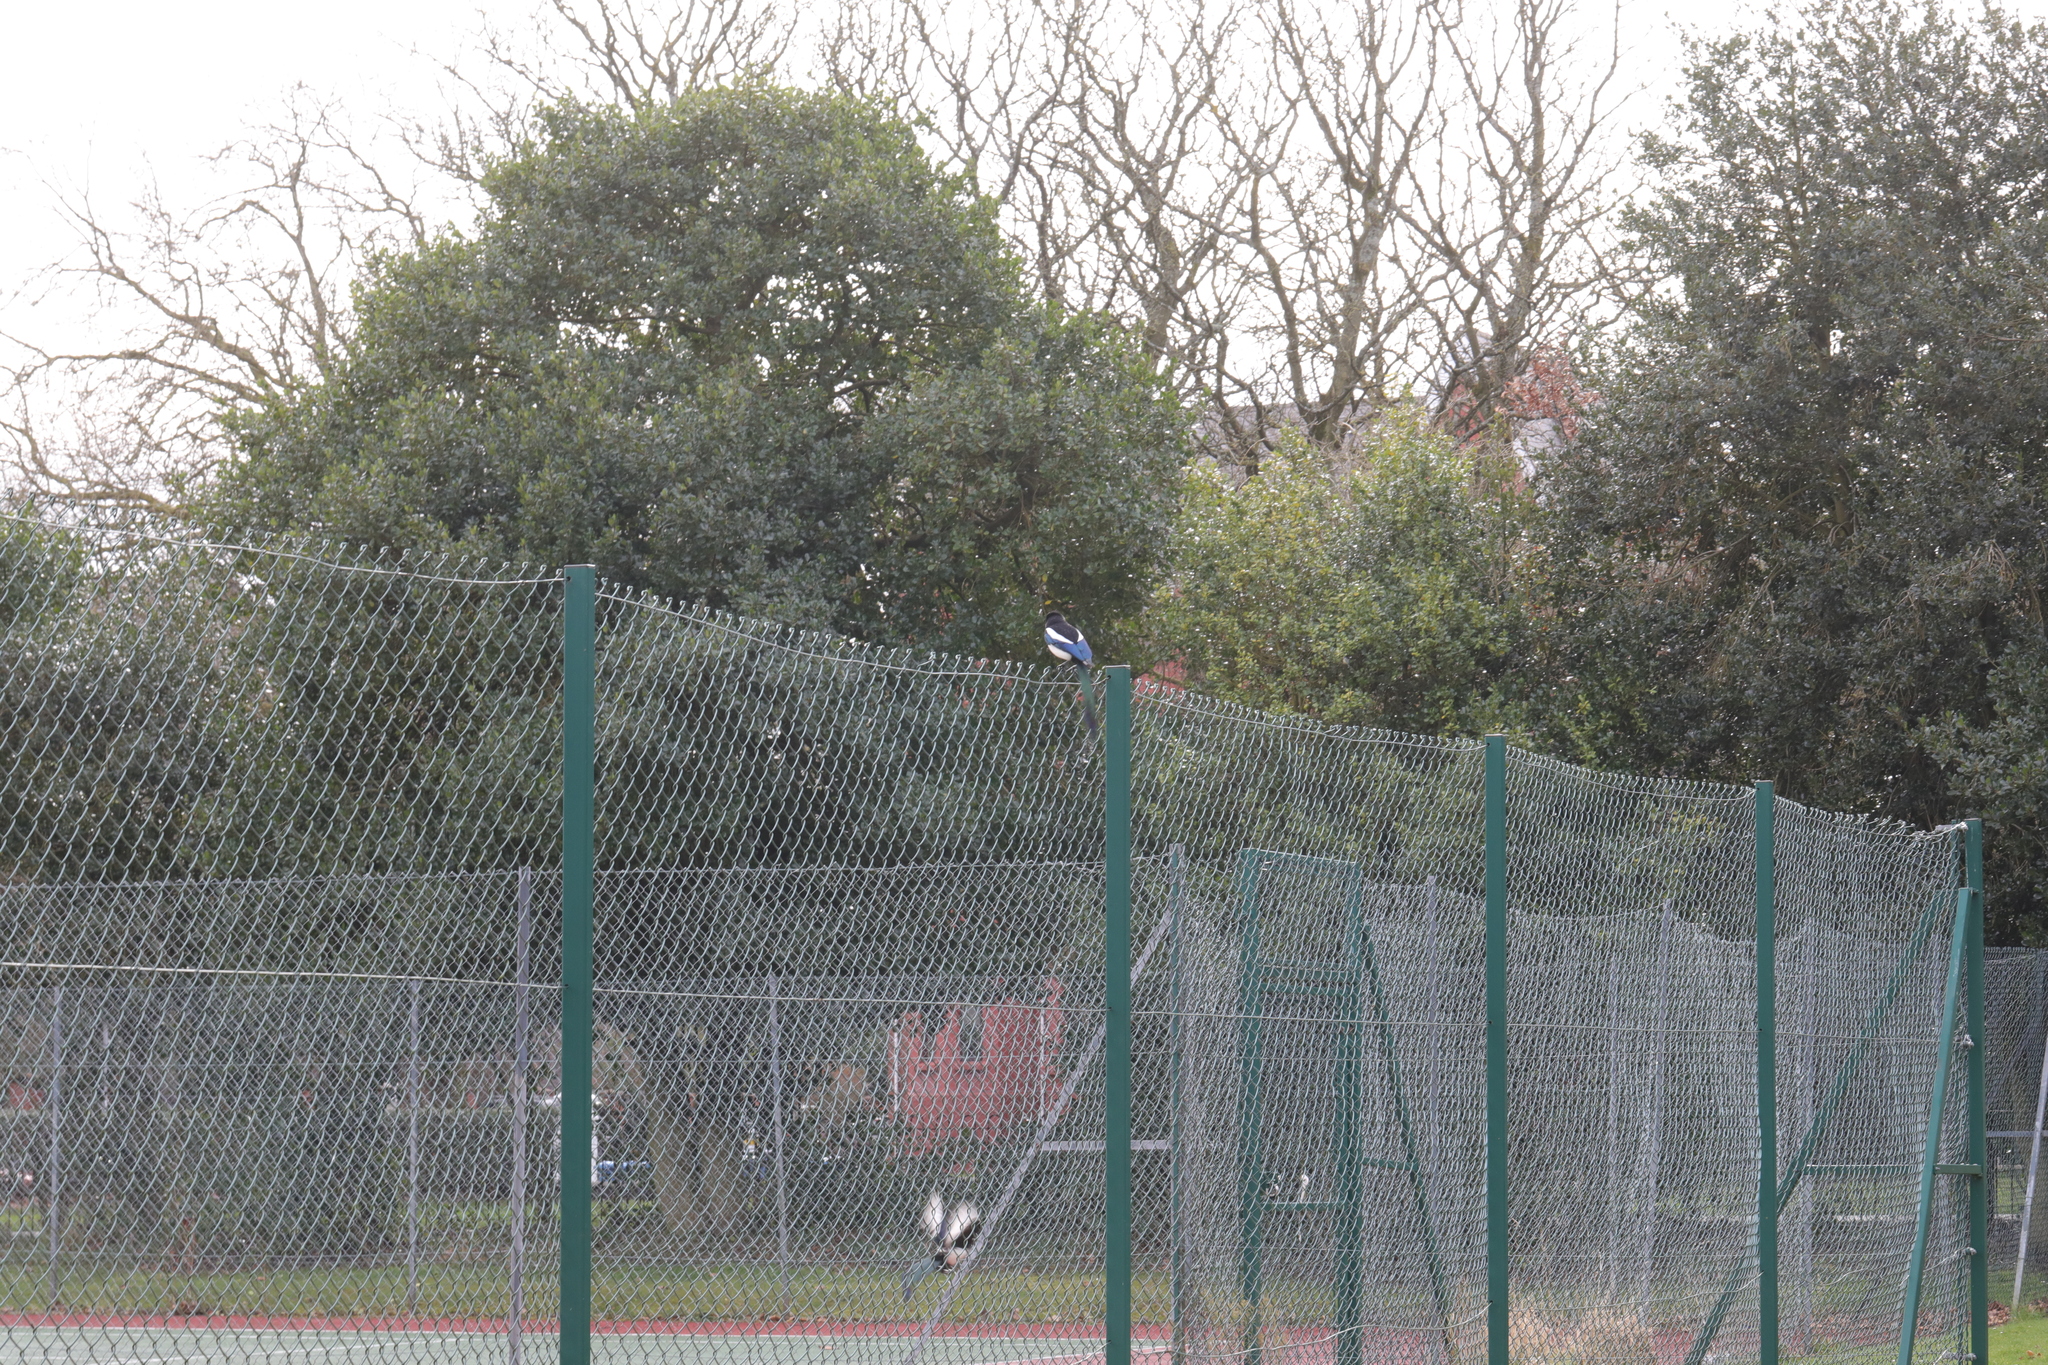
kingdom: Animalia
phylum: Chordata
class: Aves
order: Passeriformes
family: Corvidae
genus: Pica
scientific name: Pica pica
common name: Eurasian magpie
